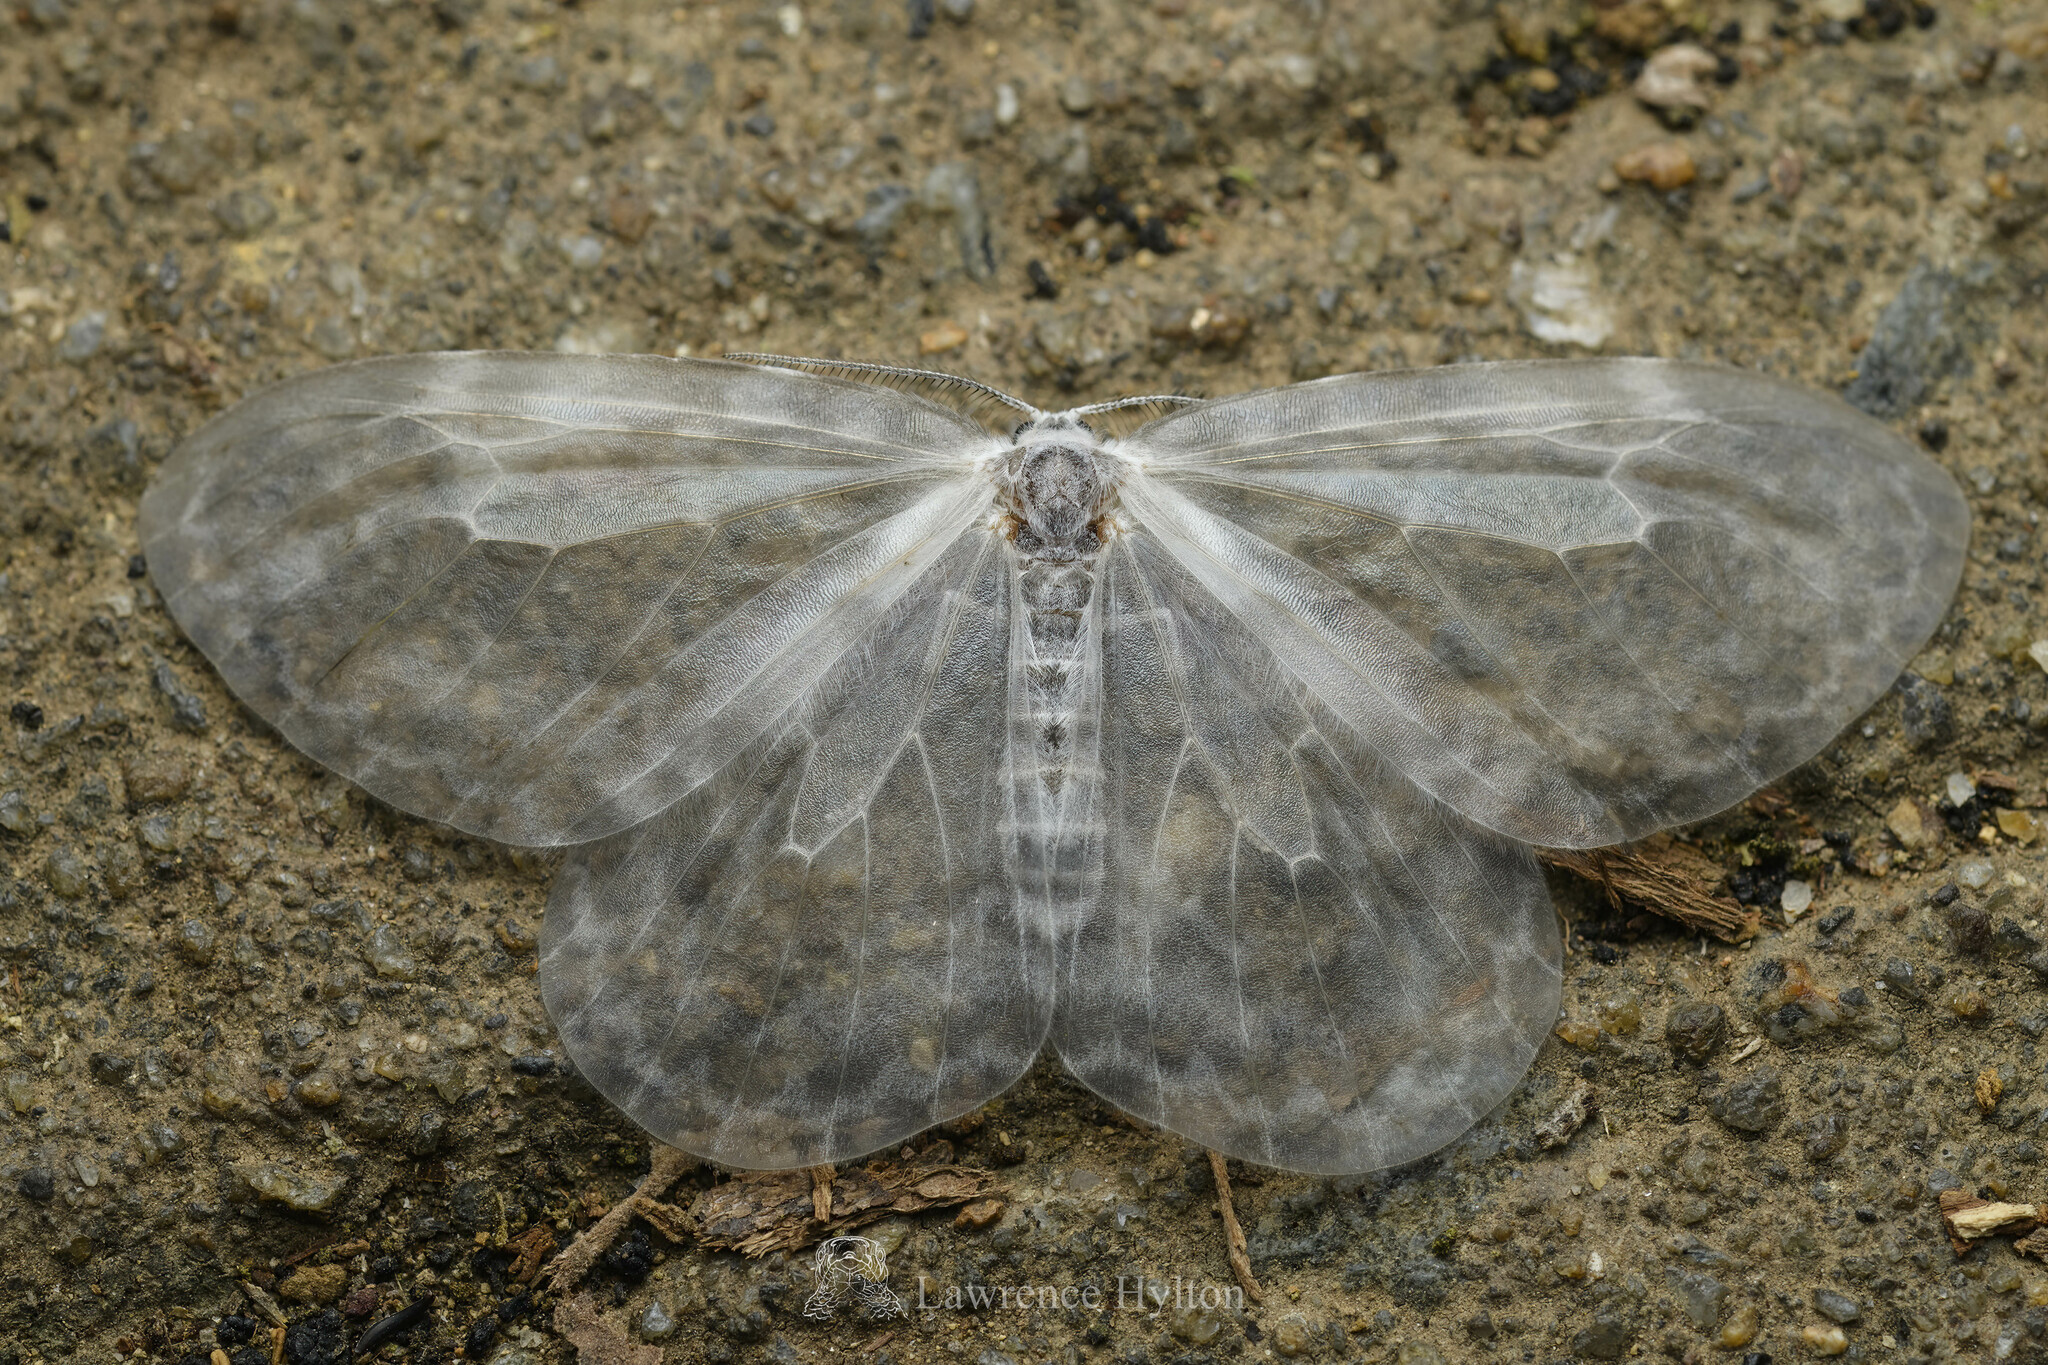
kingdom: Animalia
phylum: Arthropoda
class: Insecta
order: Lepidoptera
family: Drepanidae
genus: Deroca
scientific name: Deroca hyalina
